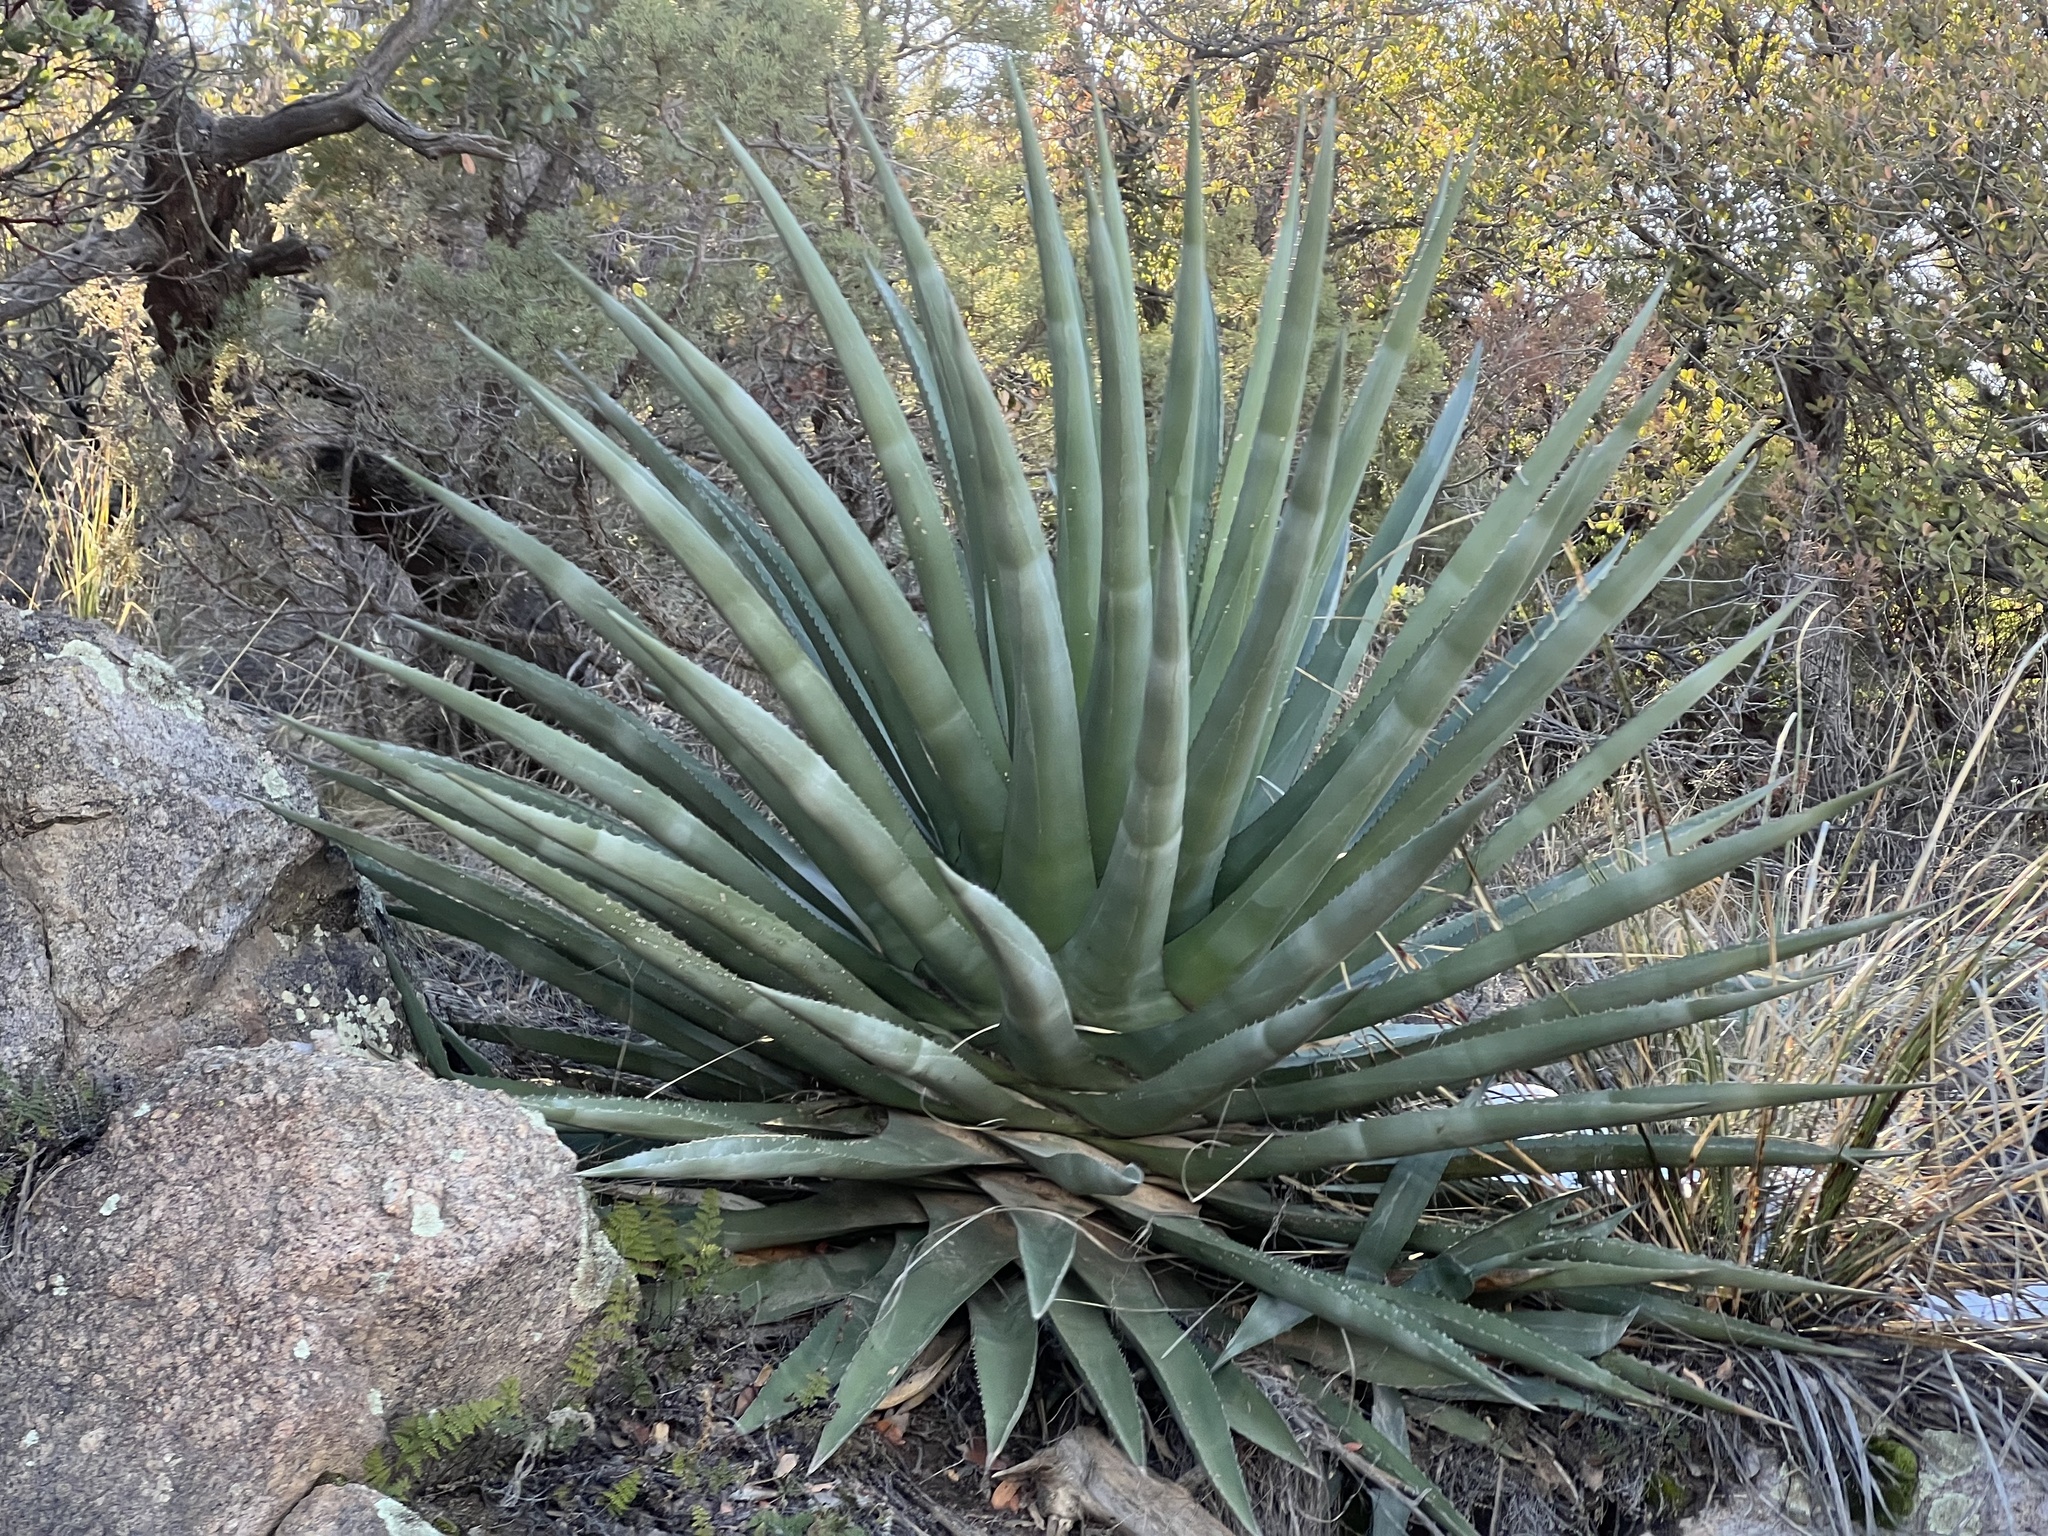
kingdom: Plantae
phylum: Tracheophyta
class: Liliopsida
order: Asparagales
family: Asparagaceae
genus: Agave
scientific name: Agave palmeri
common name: Palmer agave
